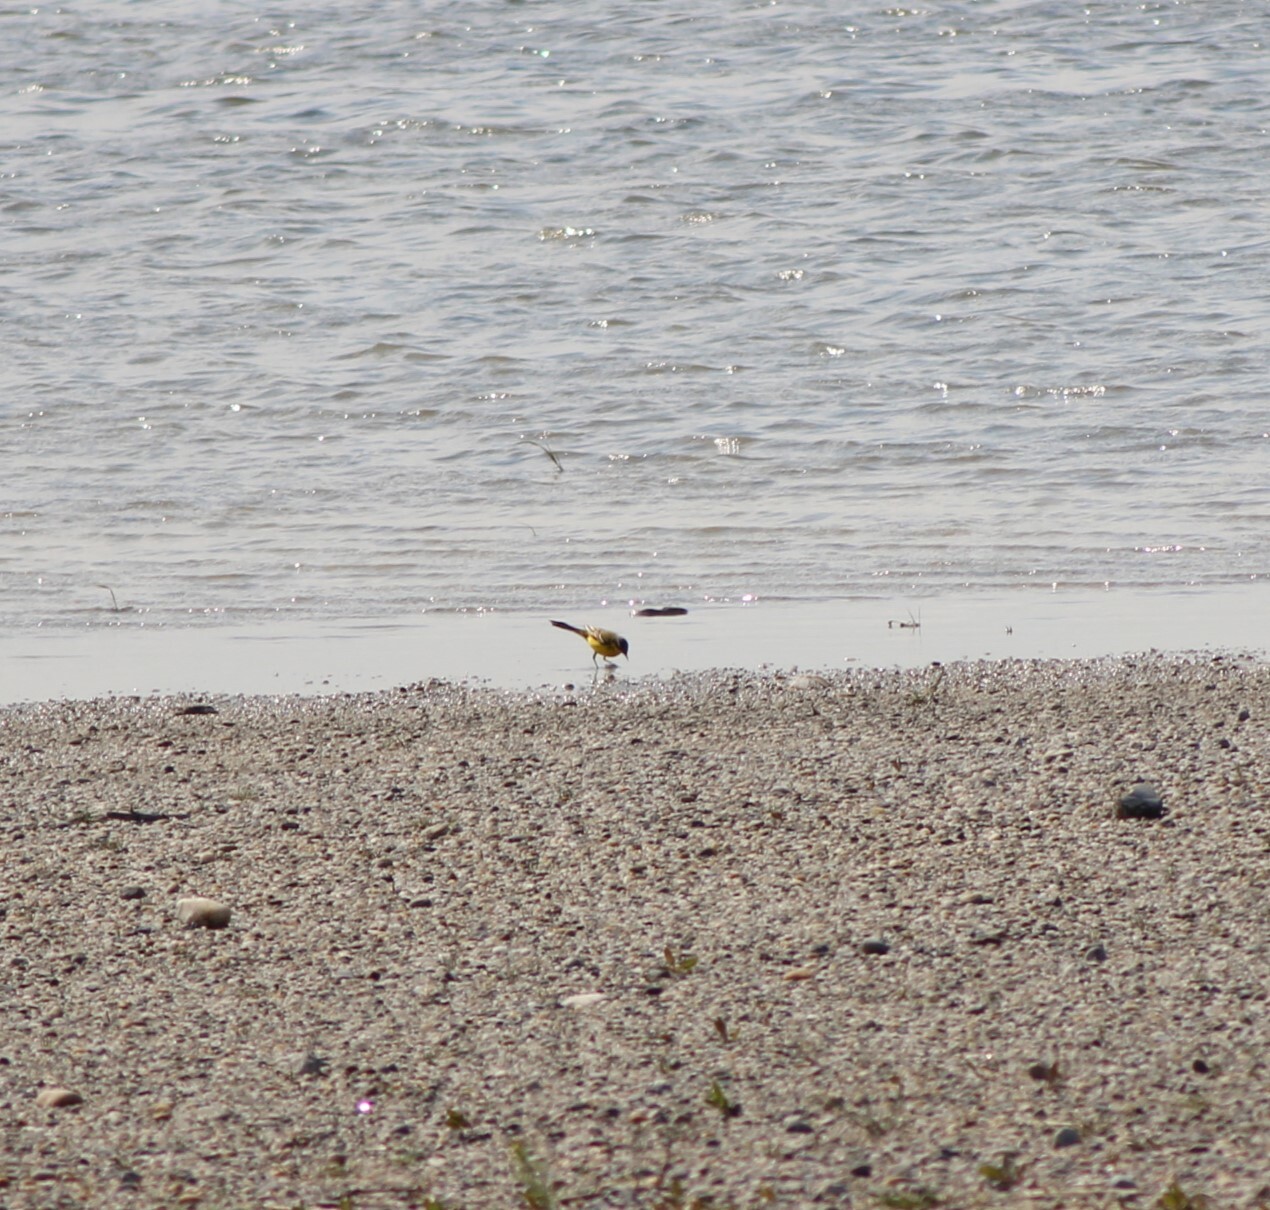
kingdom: Animalia
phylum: Chordata
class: Aves
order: Passeriformes
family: Motacillidae
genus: Motacilla
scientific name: Motacilla flava
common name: Western yellow wagtail
